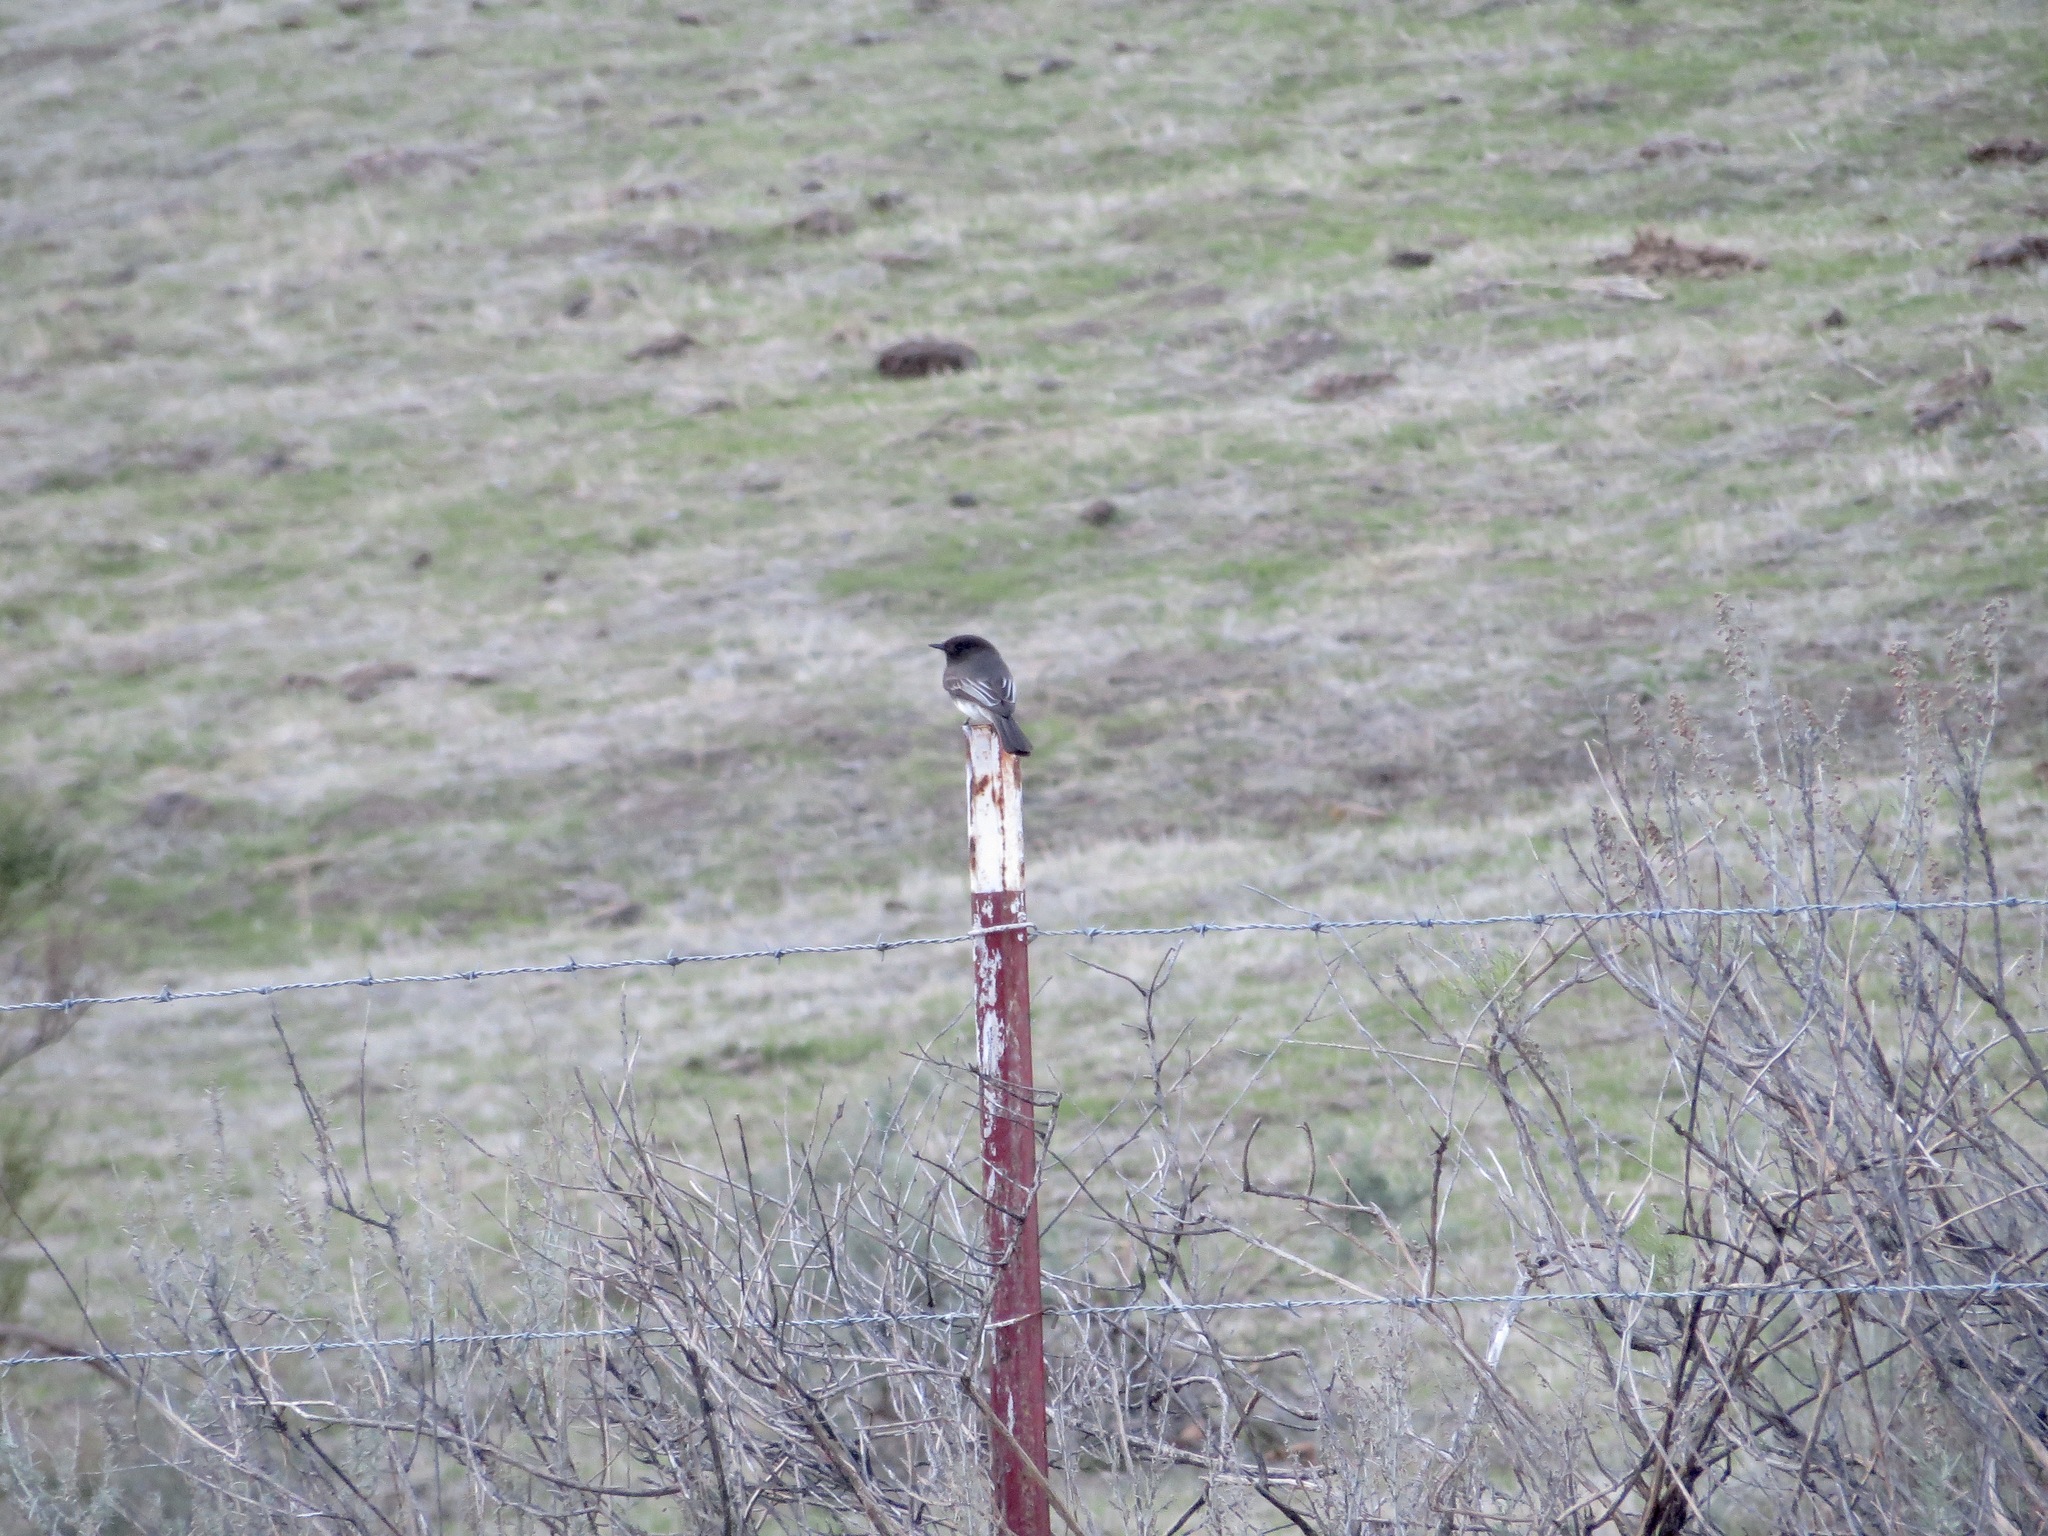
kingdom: Animalia
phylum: Chordata
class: Aves
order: Passeriformes
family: Tyrannidae
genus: Sayornis
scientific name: Sayornis nigricans
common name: Black phoebe
